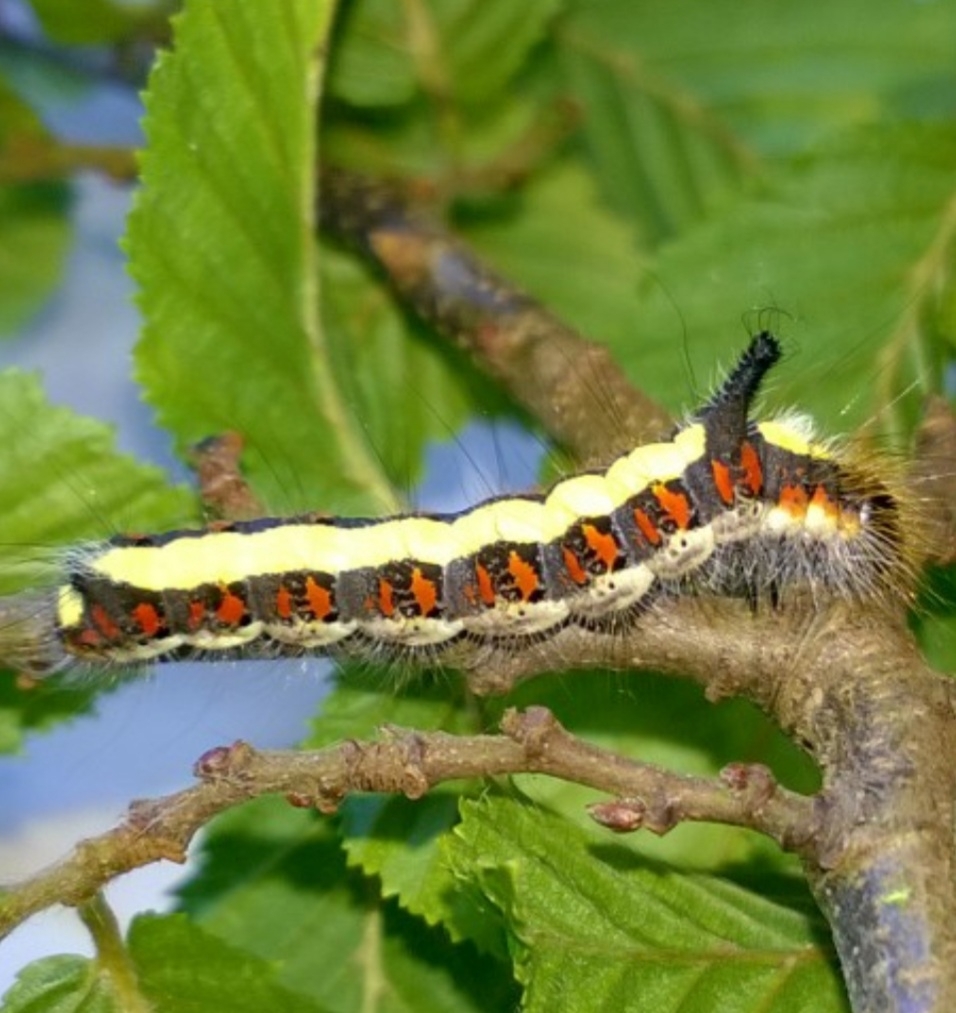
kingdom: Animalia
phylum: Arthropoda
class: Insecta
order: Lepidoptera
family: Noctuidae
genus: Acronicta
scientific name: Acronicta psi
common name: Grey dagger
